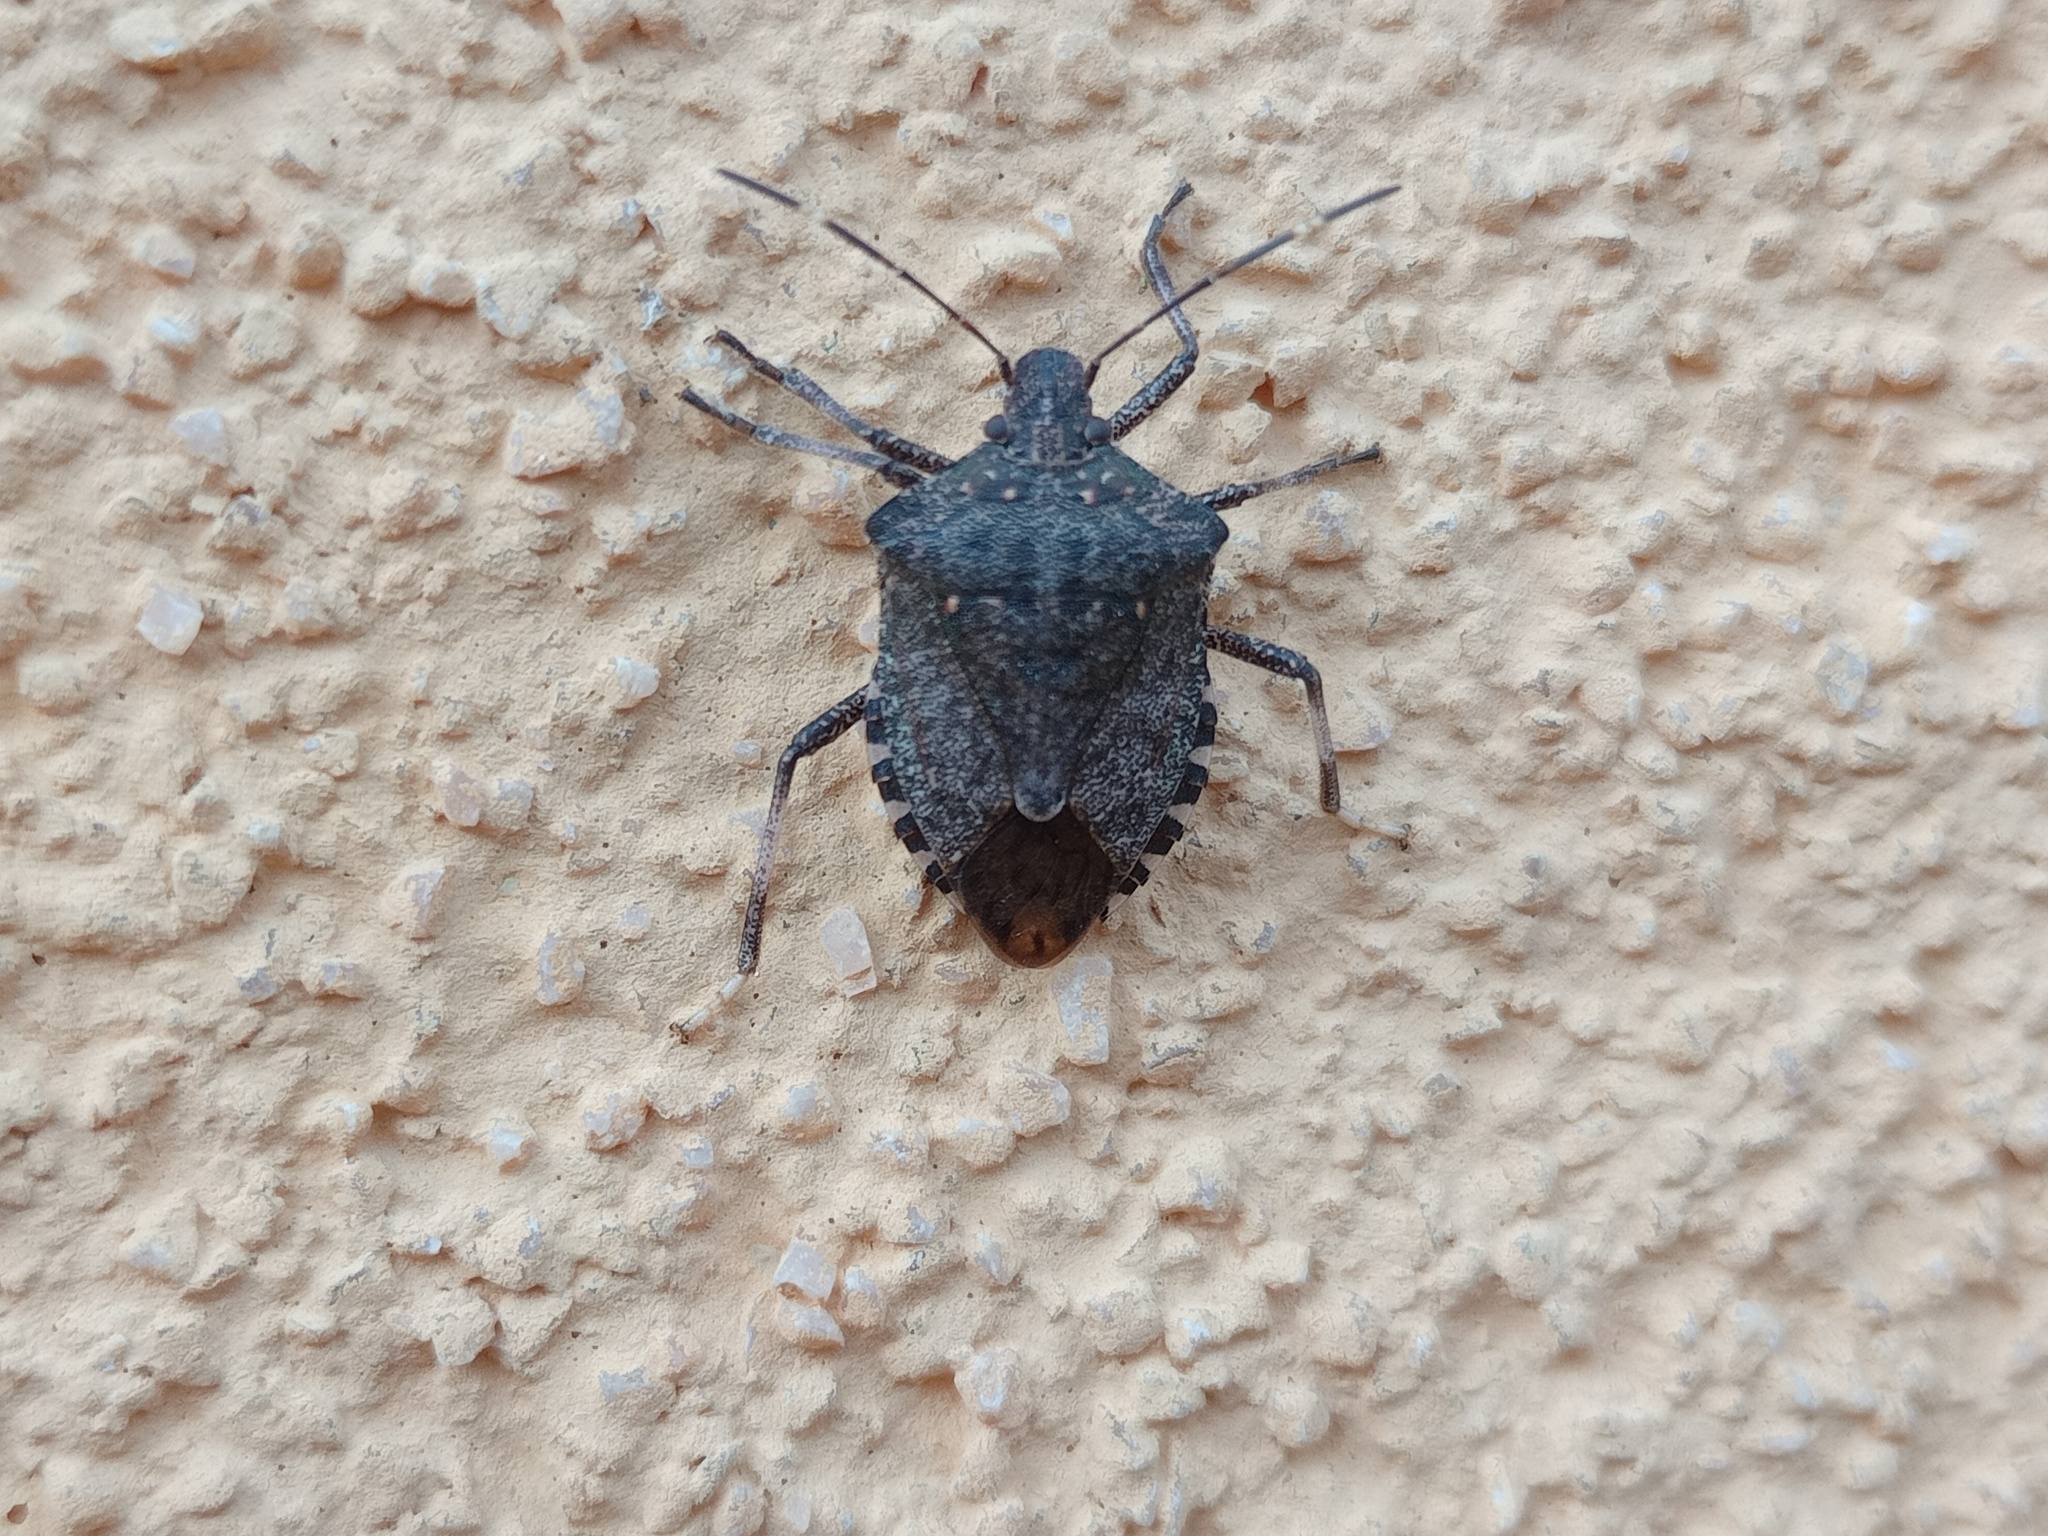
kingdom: Animalia
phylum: Arthropoda
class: Insecta
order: Hemiptera
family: Pentatomidae
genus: Halyomorpha
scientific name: Halyomorpha halys
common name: Brown marmorated stink bug
